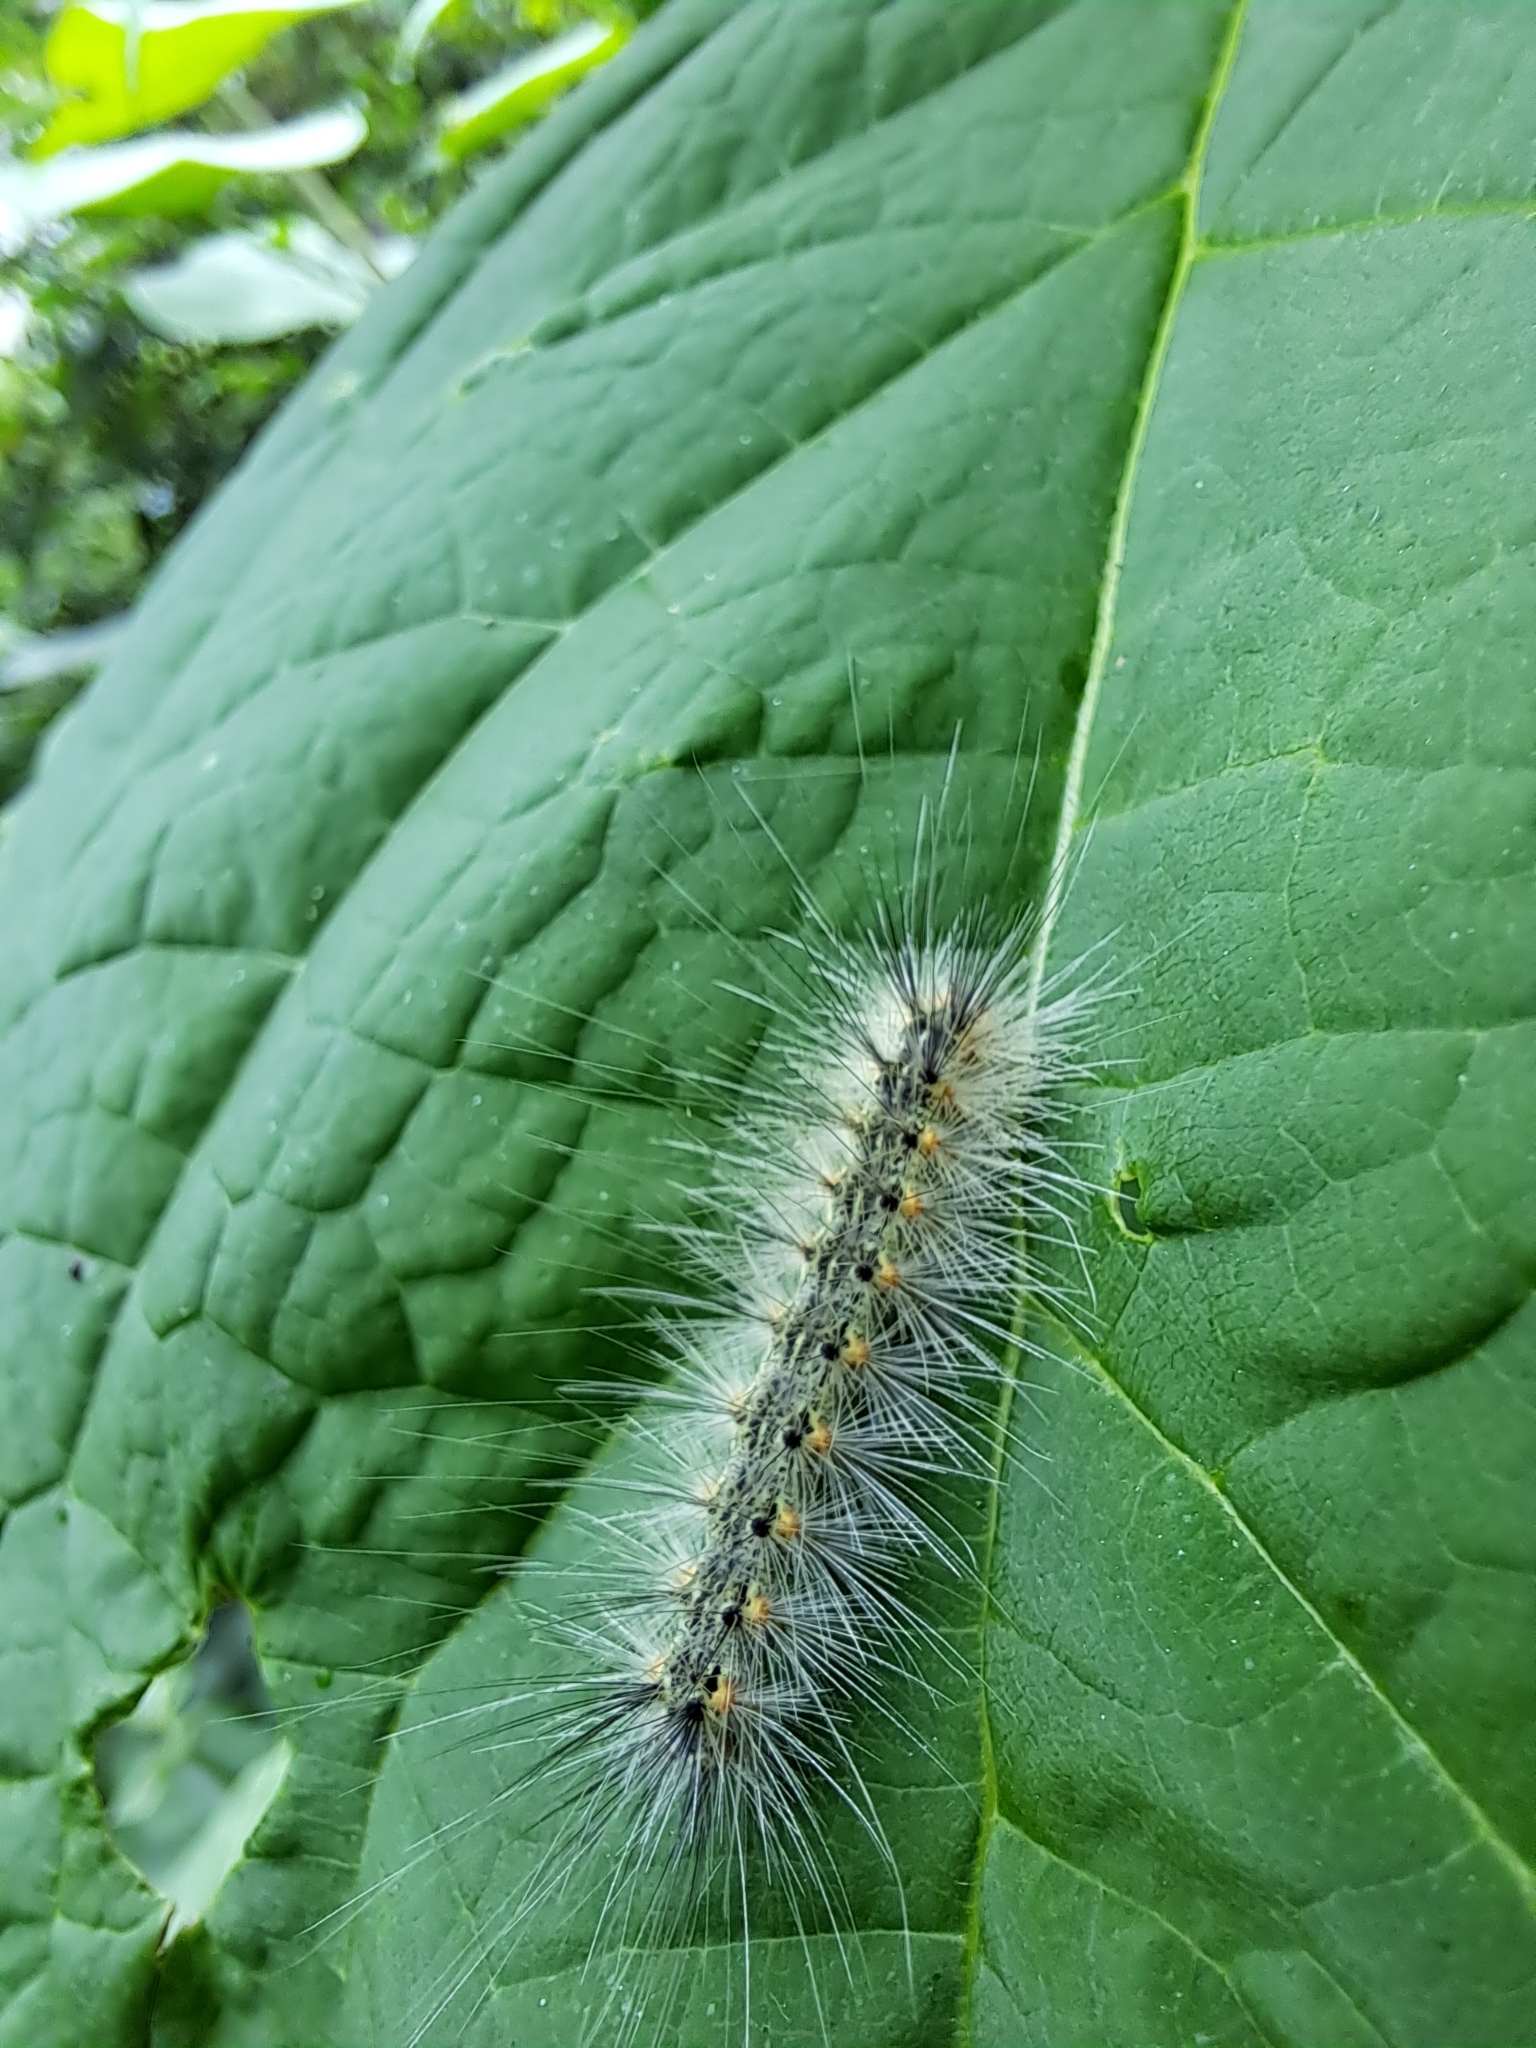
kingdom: Animalia
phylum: Arthropoda
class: Insecta
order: Lepidoptera
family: Erebidae
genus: Hyphantria
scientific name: Hyphantria cunea
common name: American white moth
